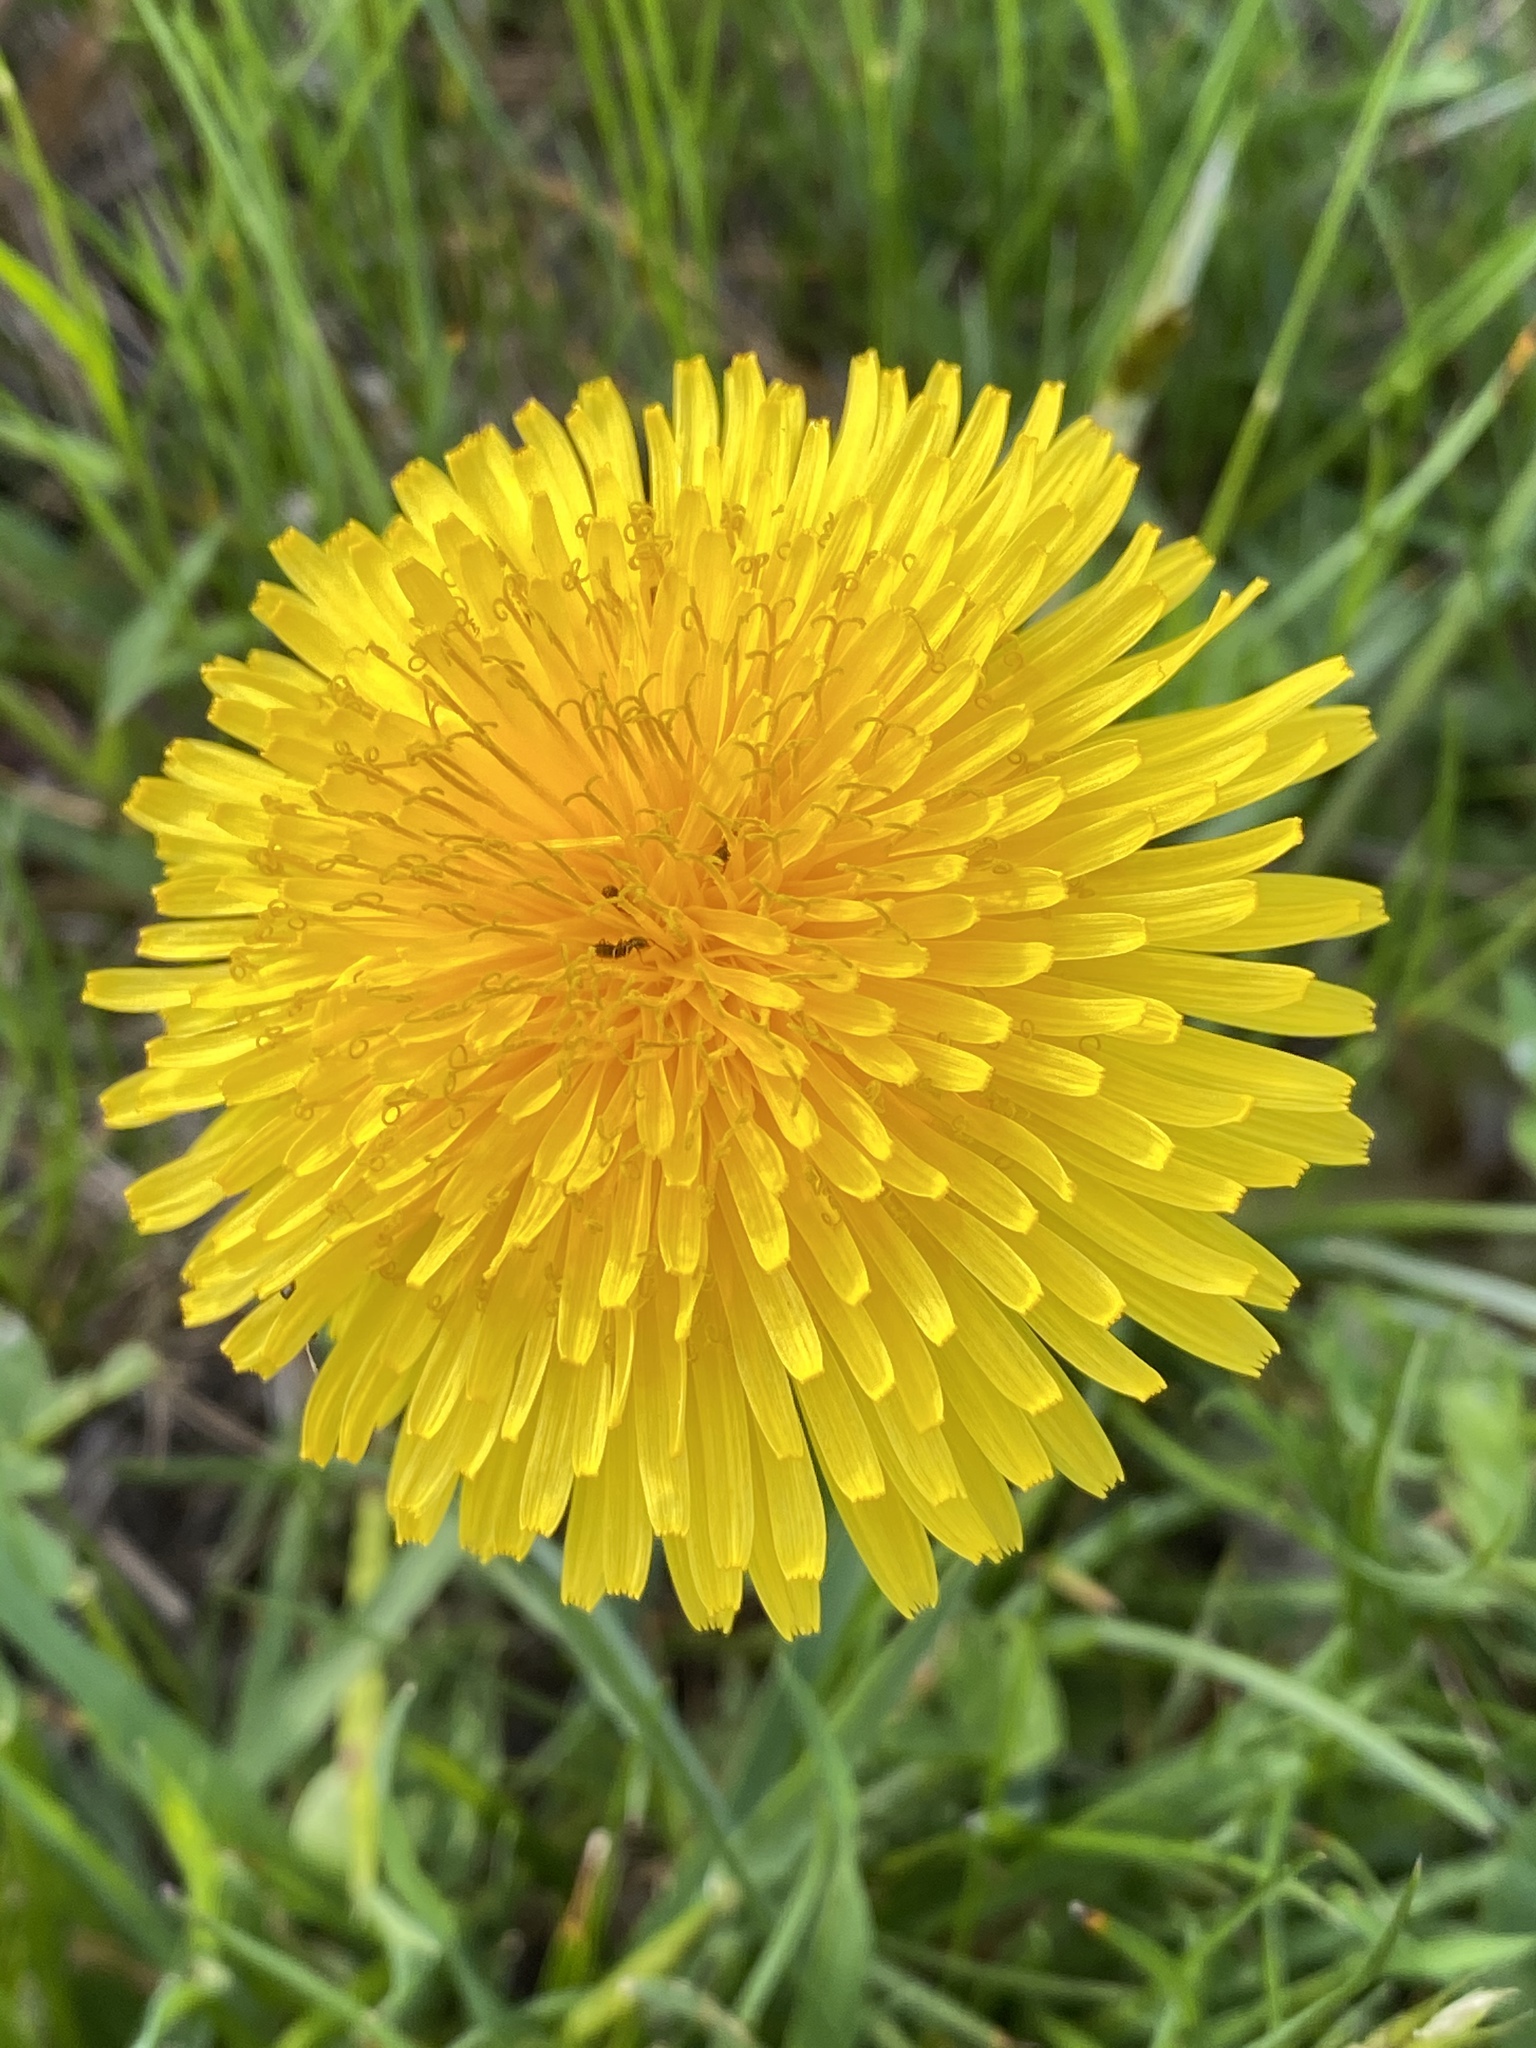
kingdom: Plantae
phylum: Tracheophyta
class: Magnoliopsida
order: Asterales
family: Asteraceae
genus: Taraxacum
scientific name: Taraxacum officinale
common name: Common dandelion
